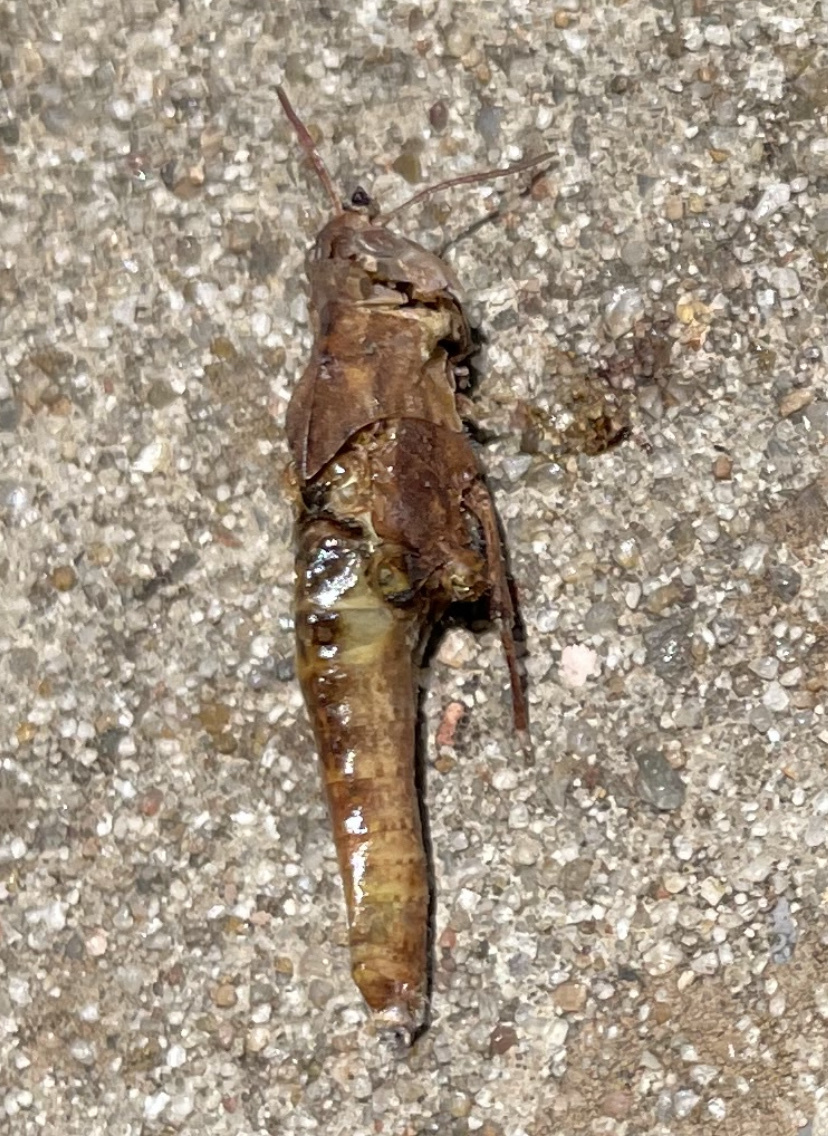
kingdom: Animalia
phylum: Arthropoda
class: Insecta
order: Orthoptera
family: Acrididae
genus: Chortophaga
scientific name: Chortophaga viridifasciata
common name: Green-striped grasshopper
